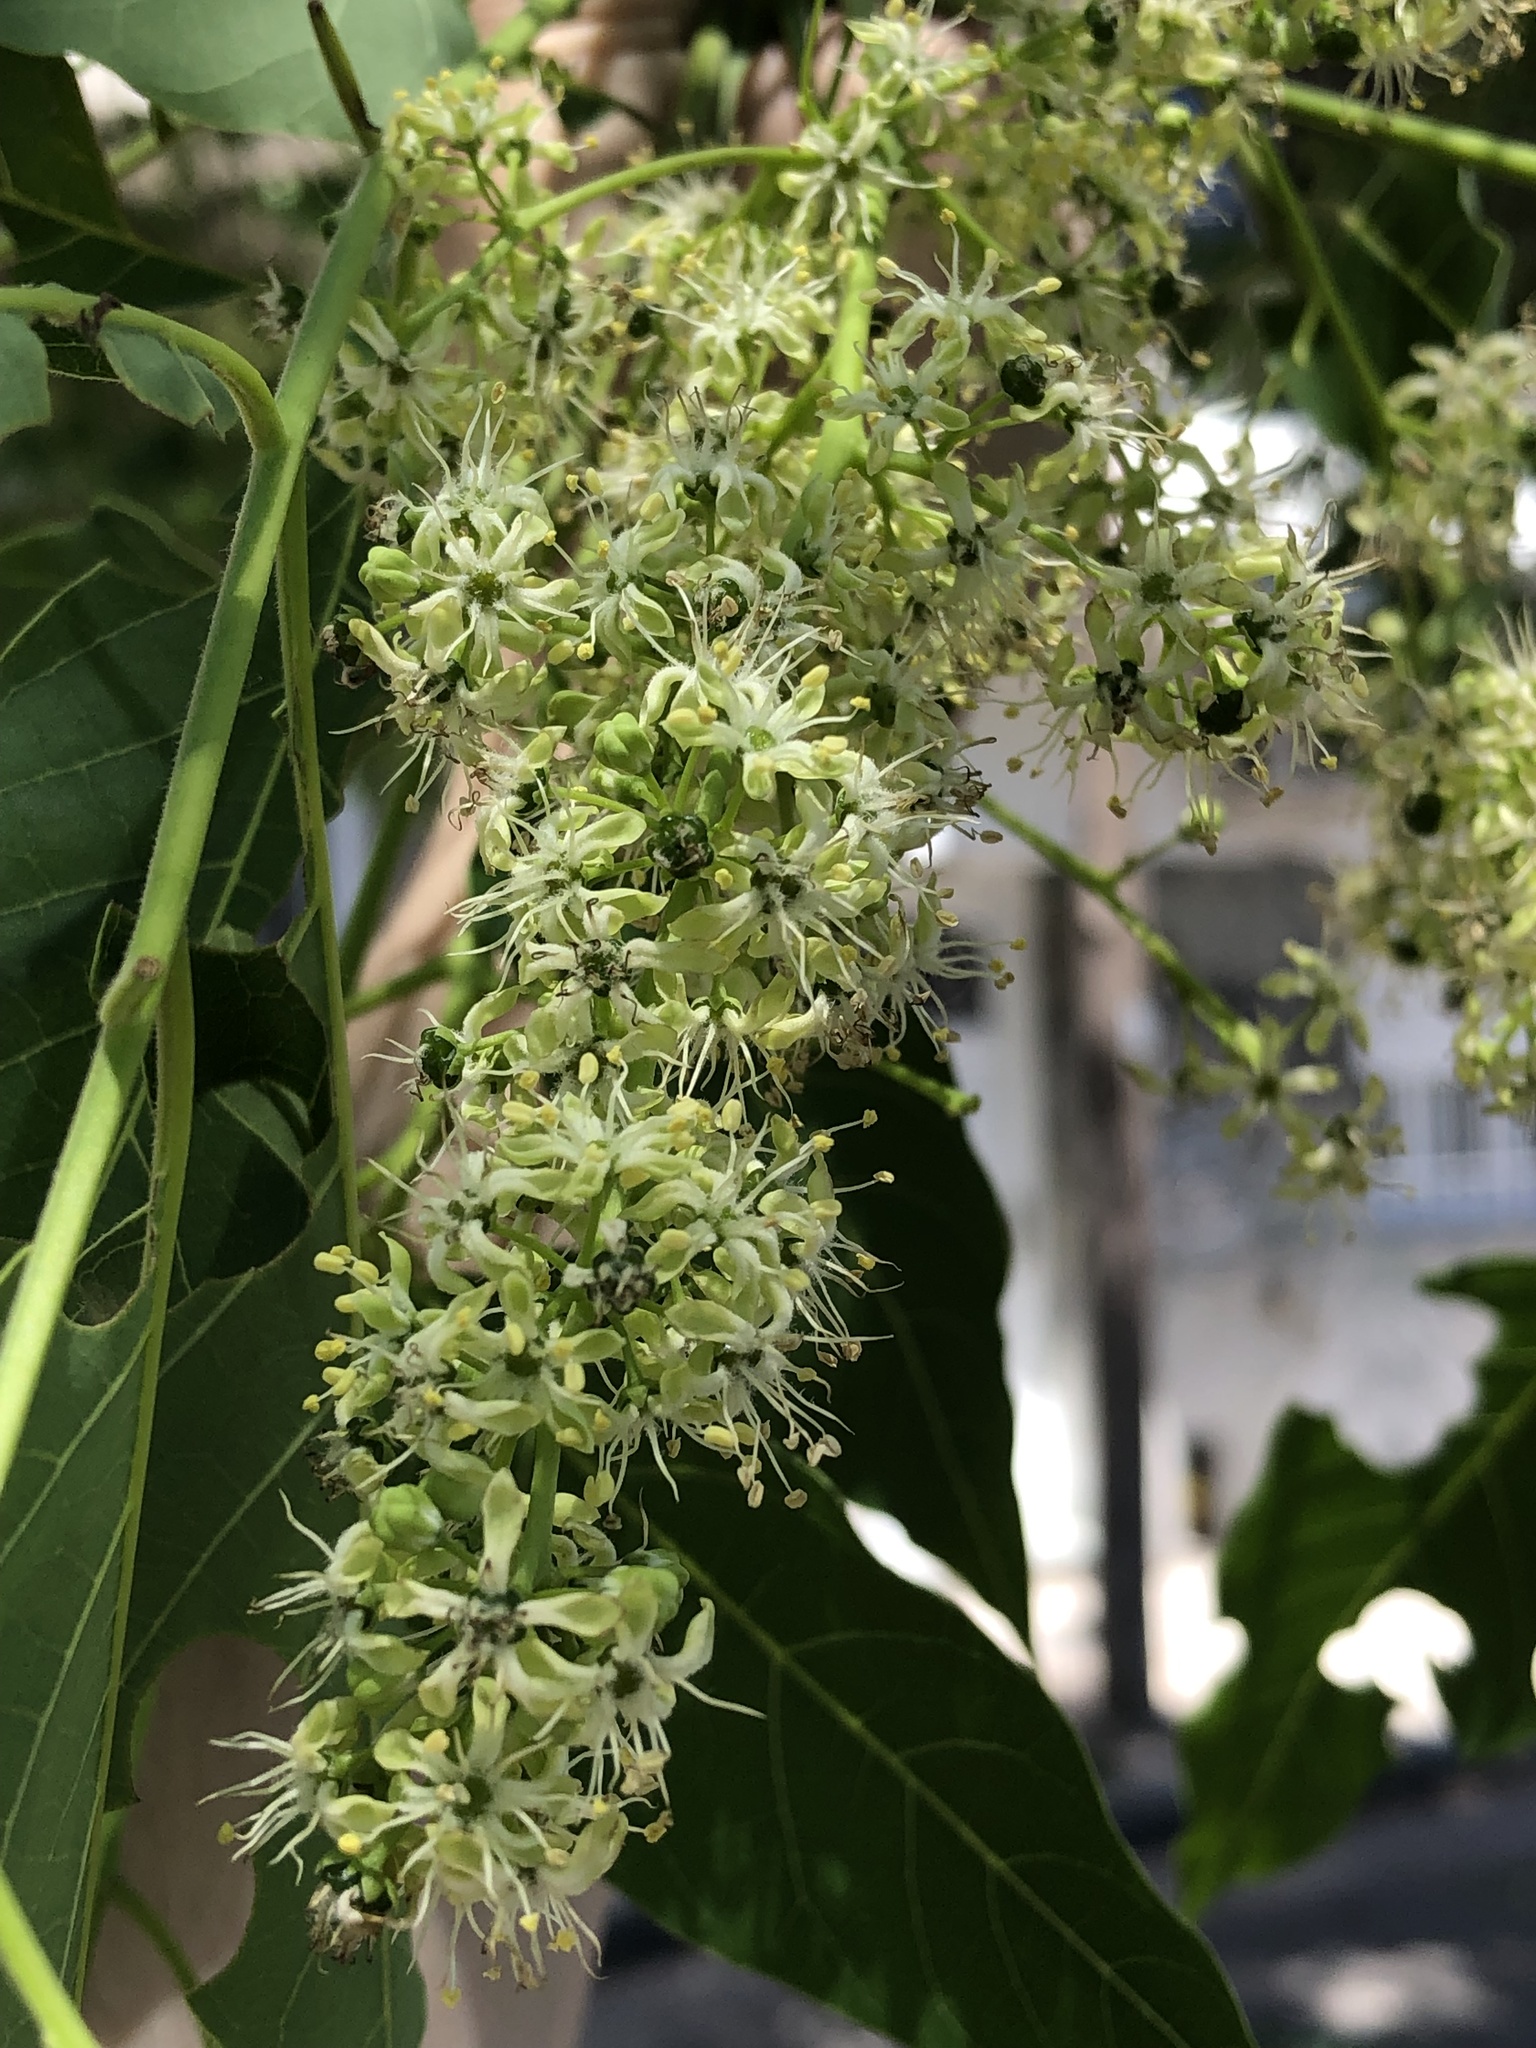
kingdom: Plantae
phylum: Tracheophyta
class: Magnoliopsida
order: Sapindales
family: Simaroubaceae
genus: Ailanthus
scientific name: Ailanthus altissima
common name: Tree-of-heaven
